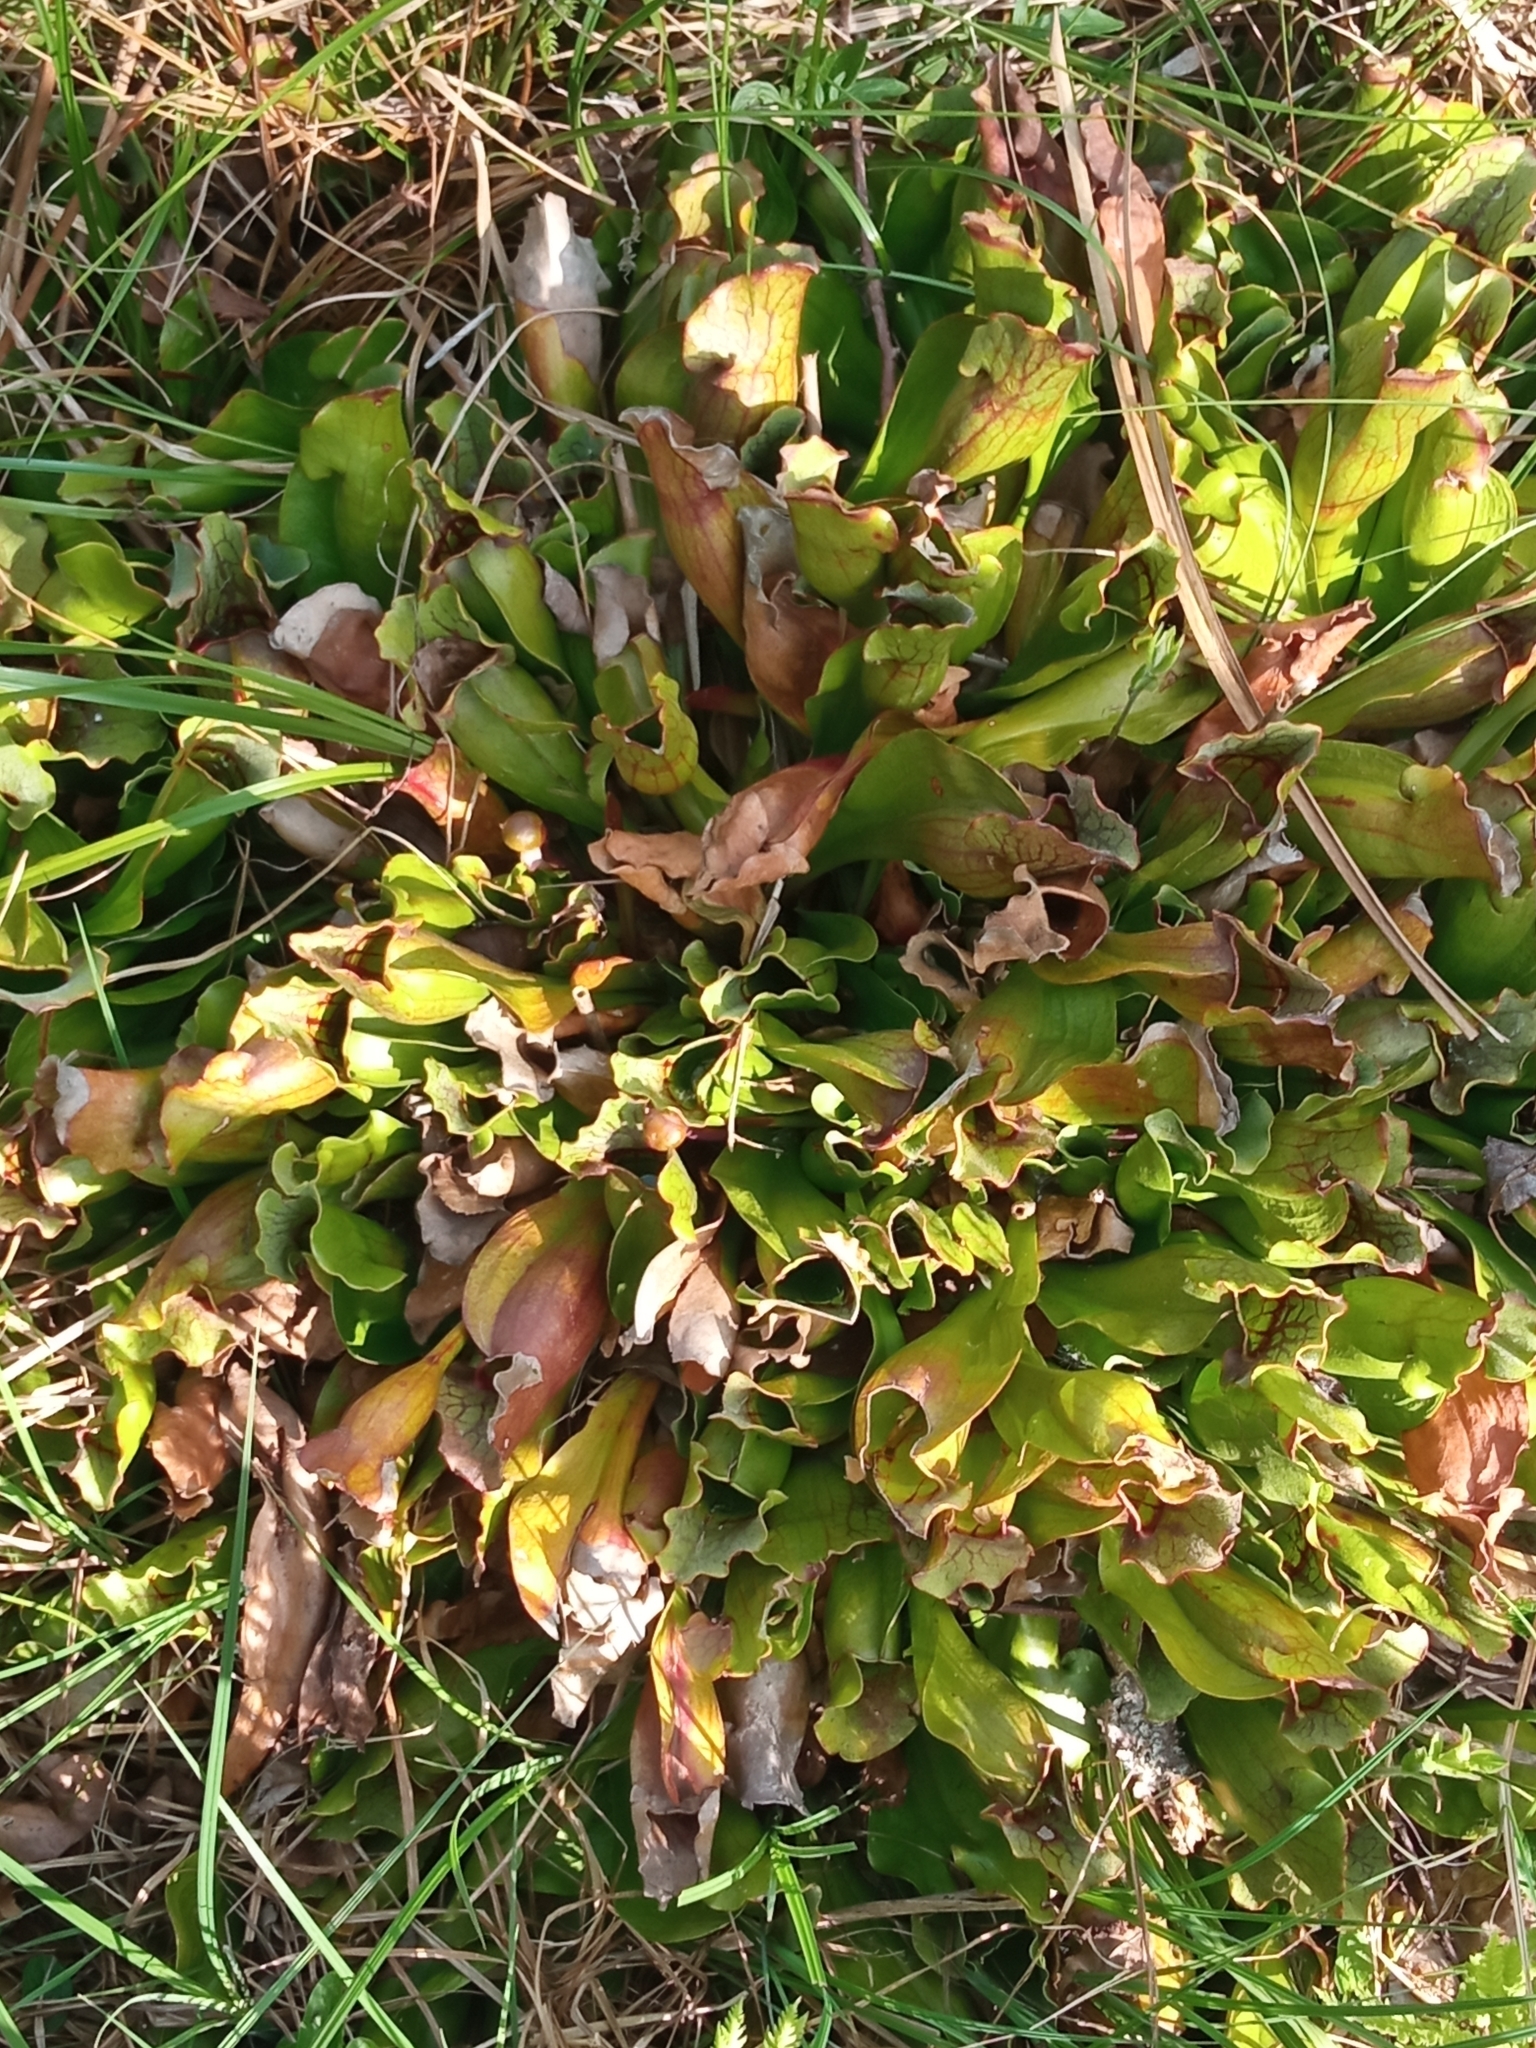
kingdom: Plantae
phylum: Tracheophyta
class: Magnoliopsida
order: Ericales
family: Sarraceniaceae
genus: Sarracenia
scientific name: Sarracenia purpurea
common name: Pitcherplant
